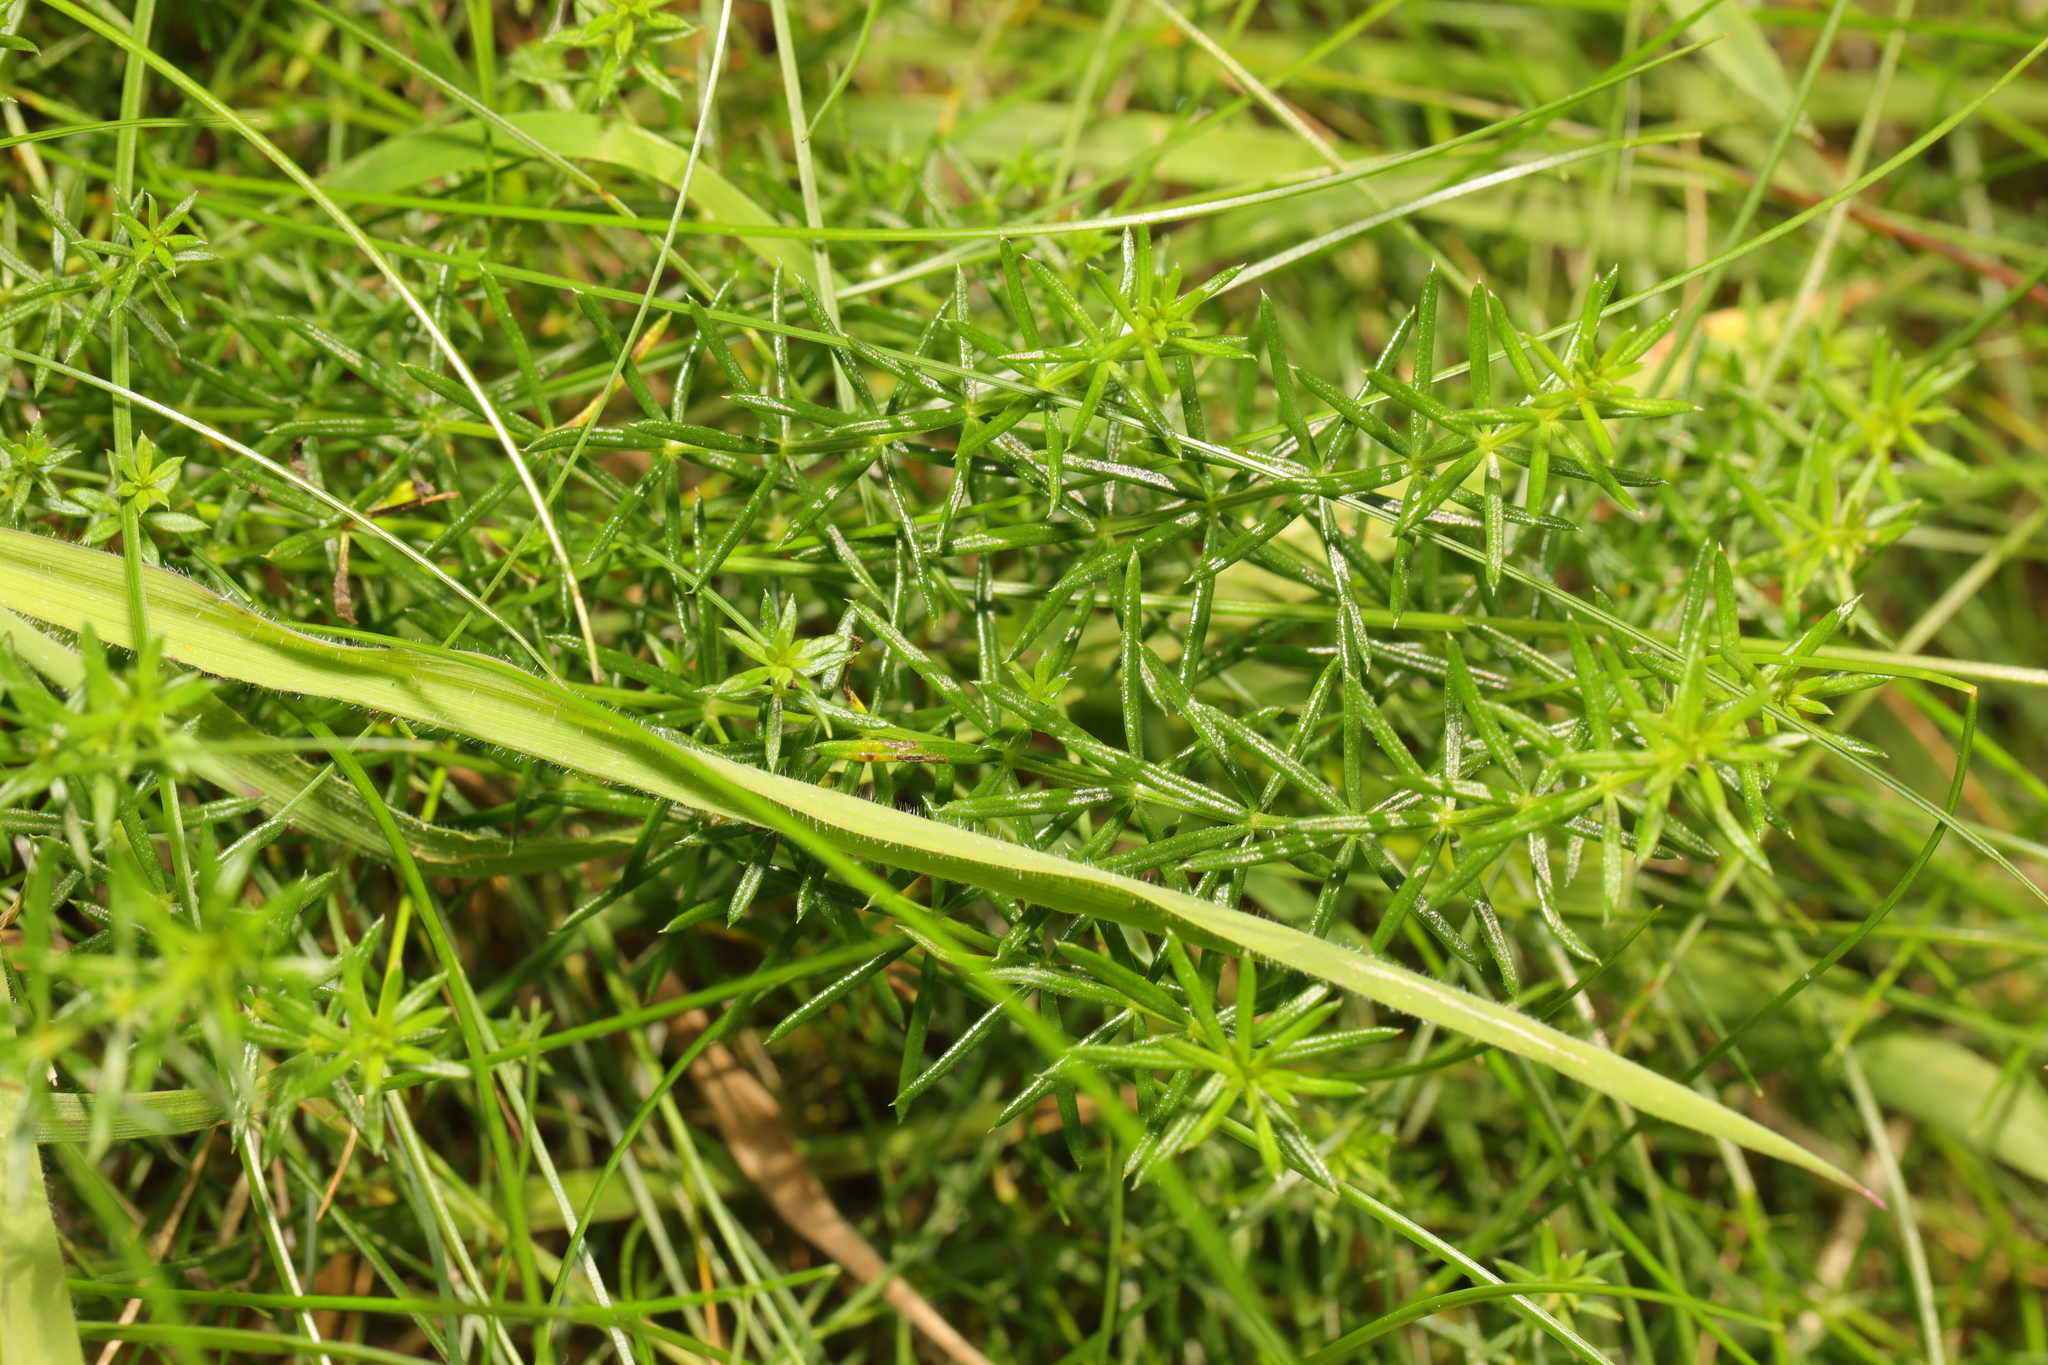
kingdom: Plantae
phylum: Tracheophyta
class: Magnoliopsida
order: Gentianales
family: Rubiaceae
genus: Galium
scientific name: Galium verum
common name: Lady's bedstraw
